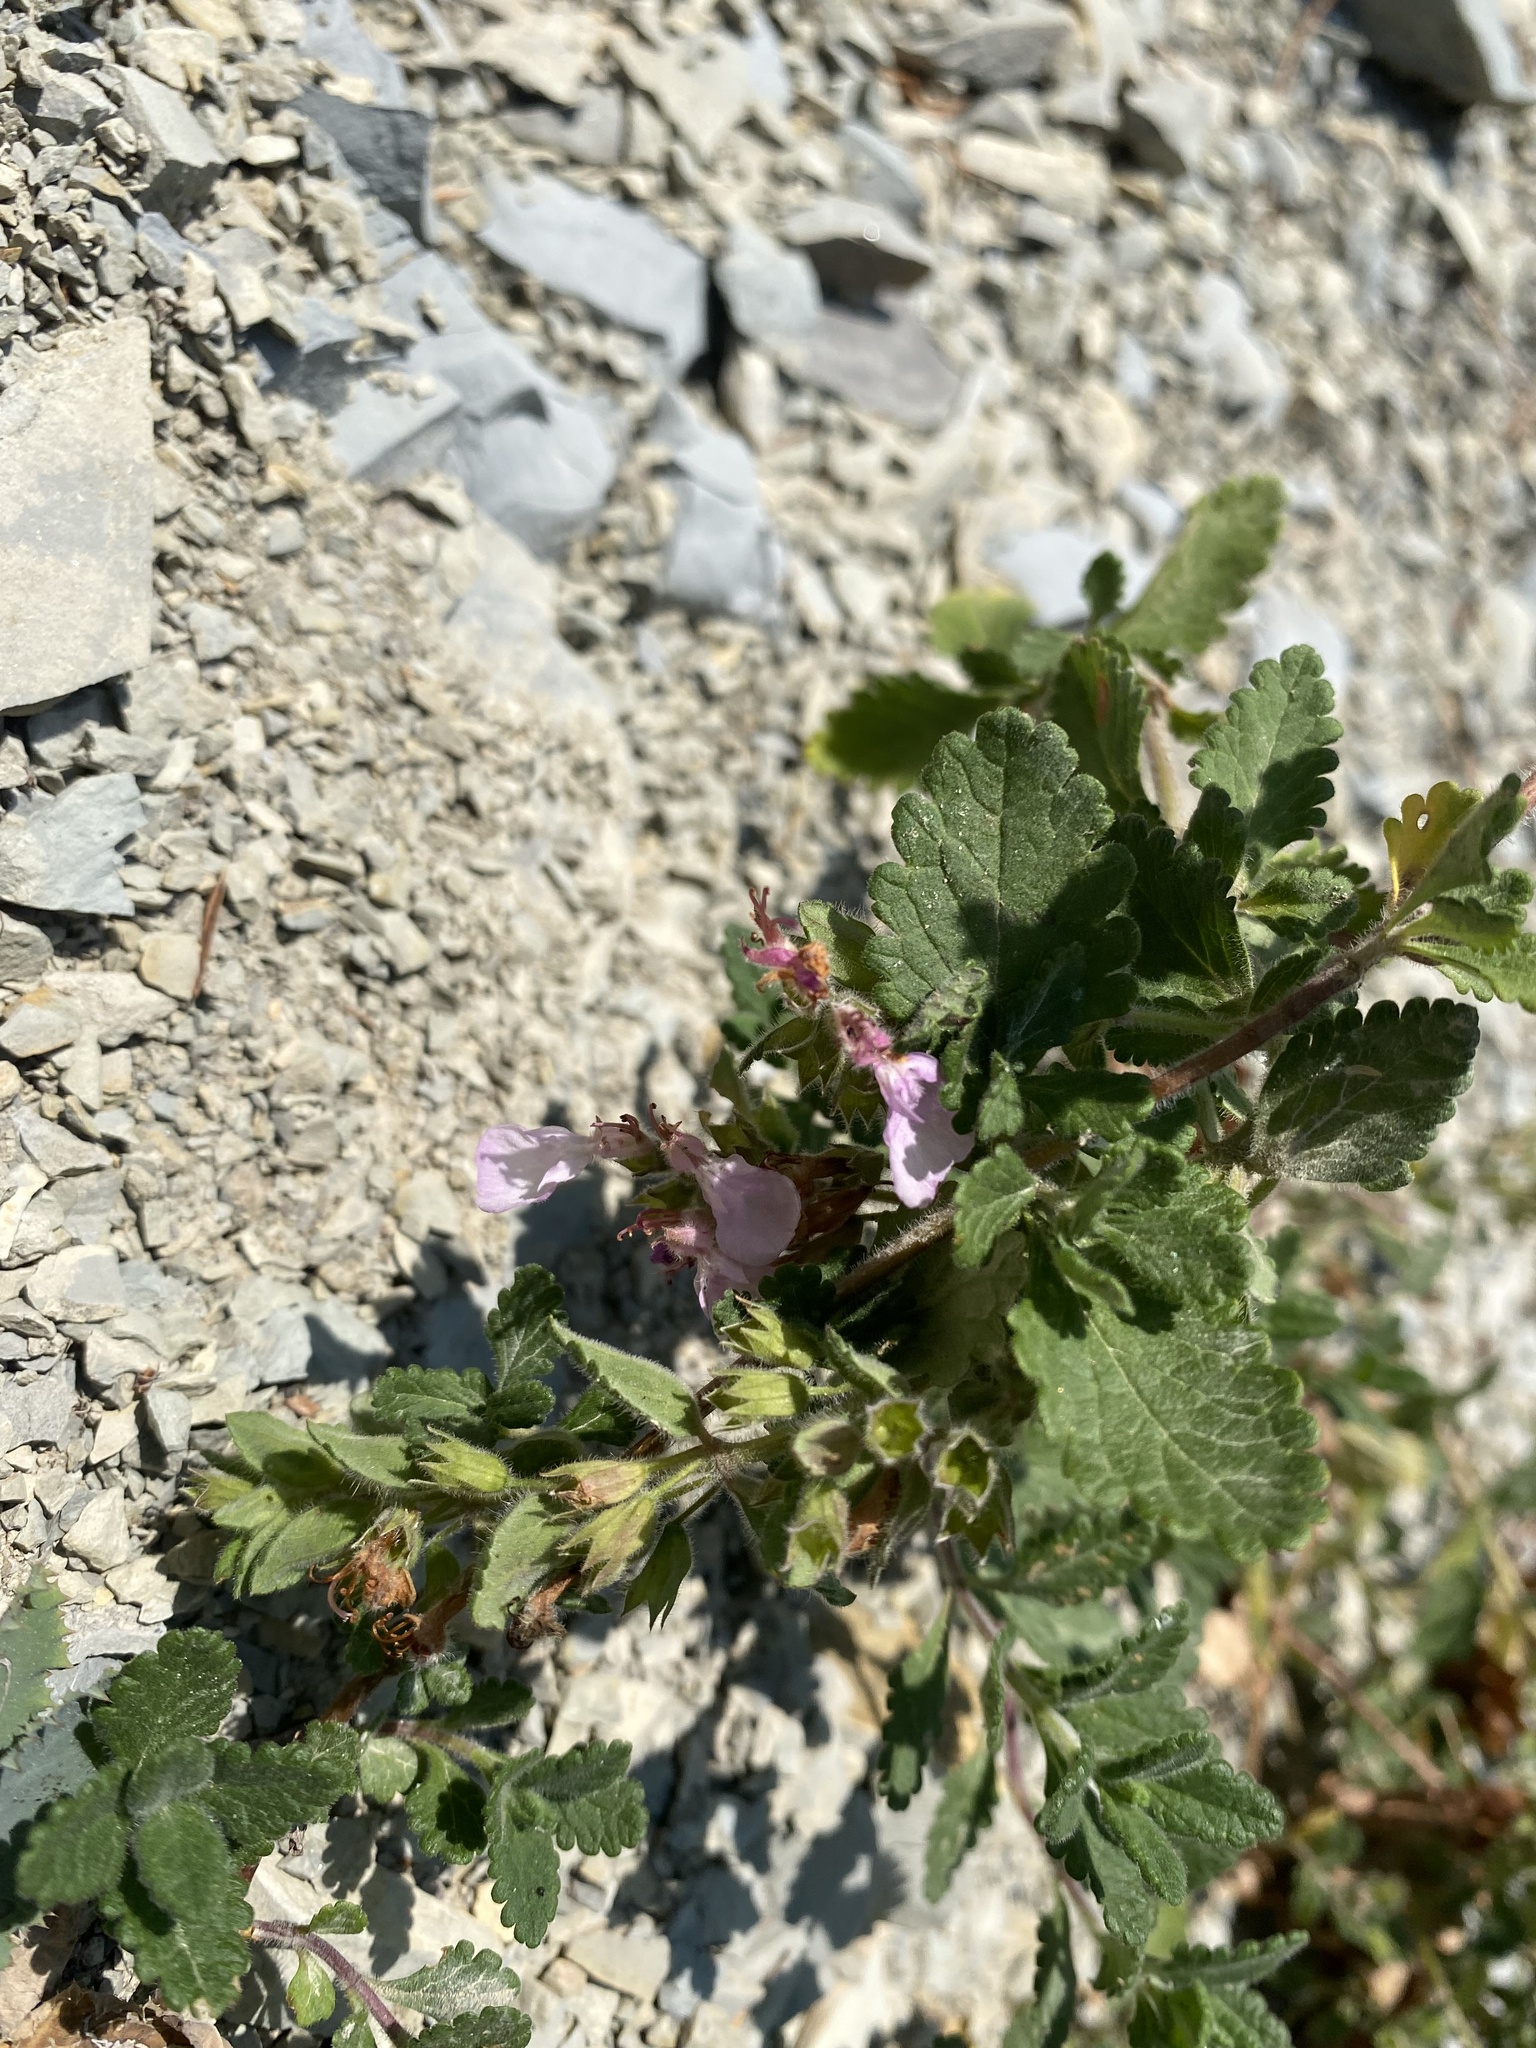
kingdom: Plantae
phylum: Tracheophyta
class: Magnoliopsida
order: Lamiales
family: Lamiaceae
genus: Teucrium
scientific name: Teucrium chamaedrys
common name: Wall germander
